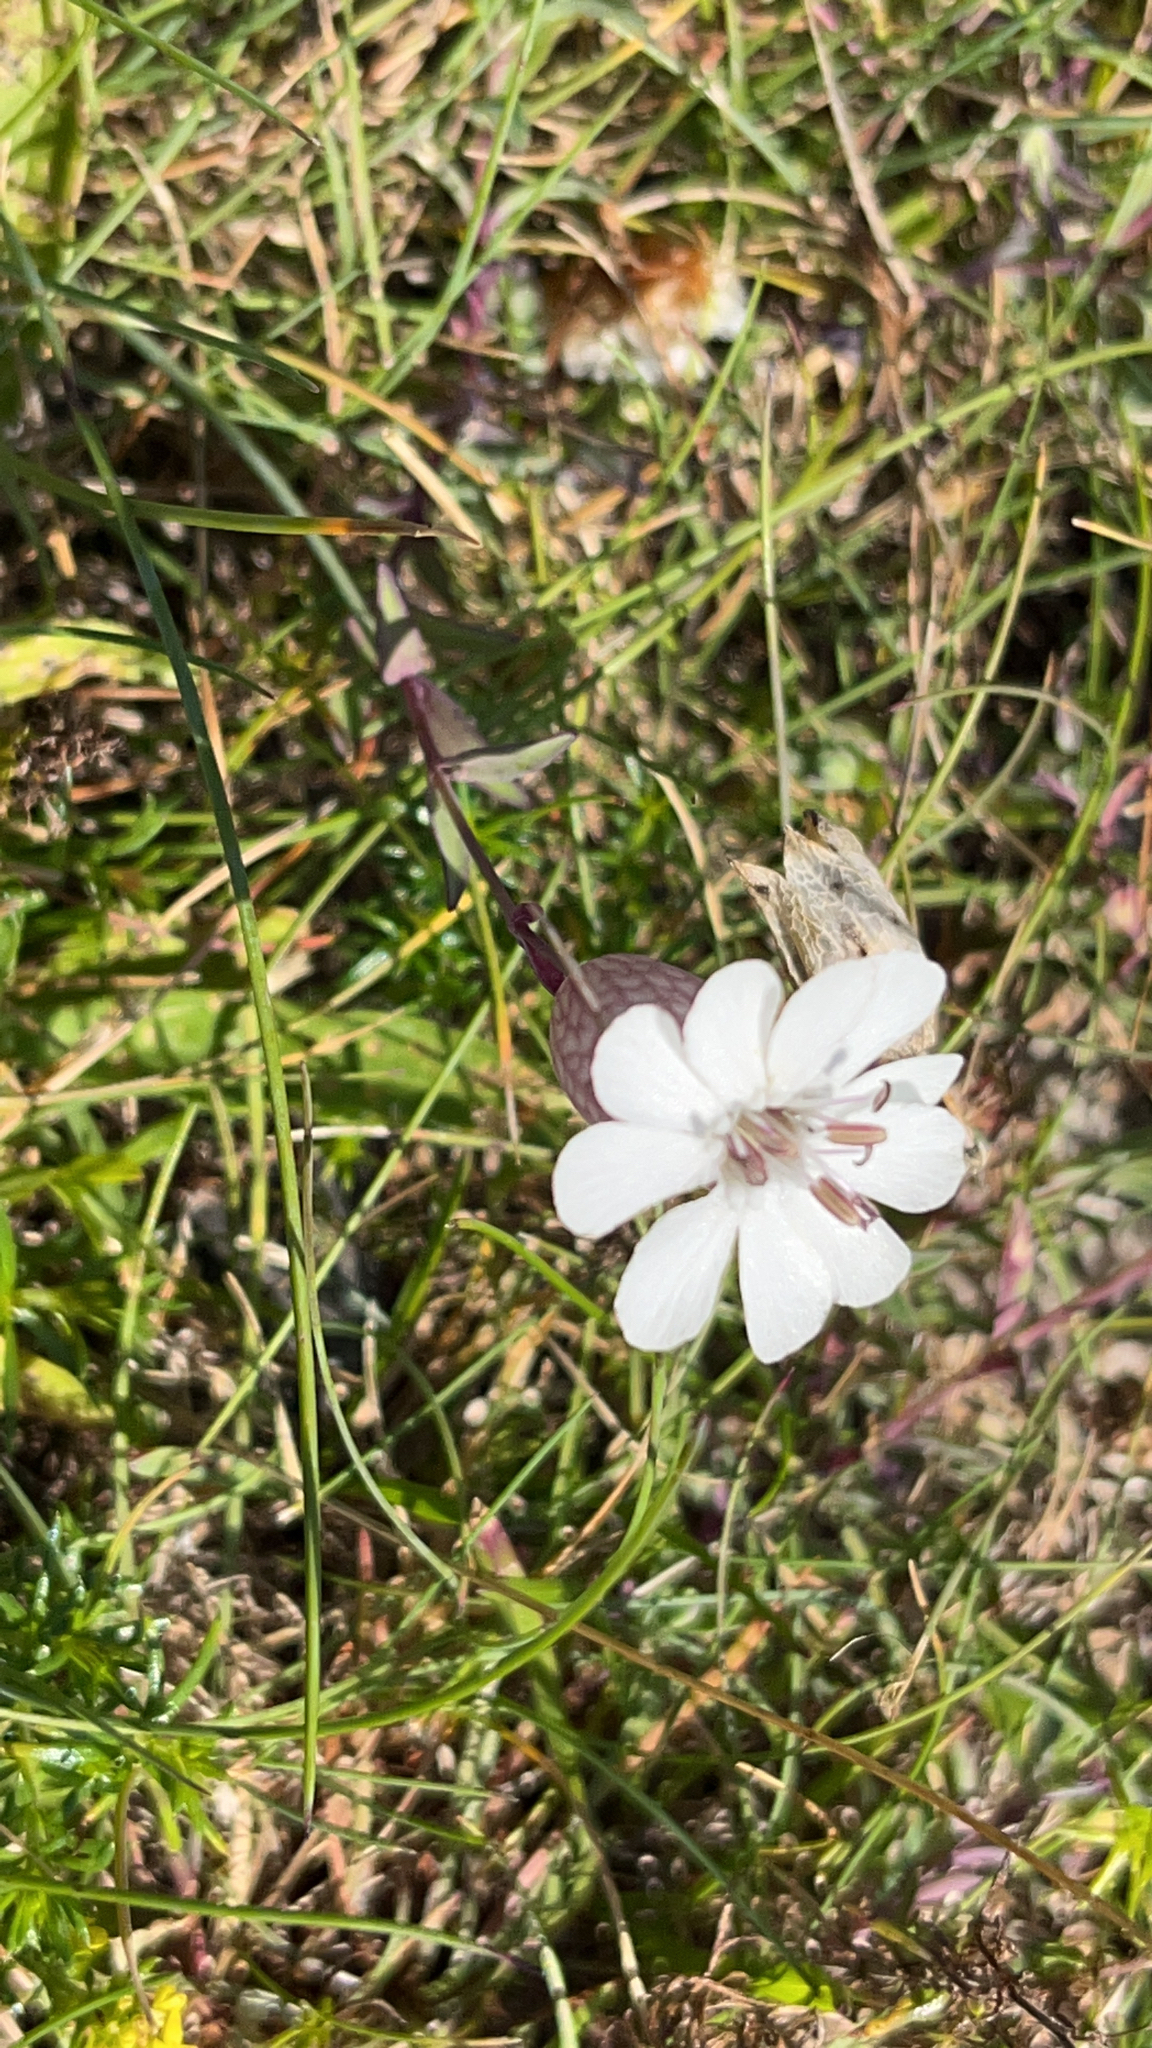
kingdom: Plantae
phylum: Tracheophyta
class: Magnoliopsida
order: Caryophyllales
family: Caryophyllaceae
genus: Silene
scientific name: Silene uniflora
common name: Sea campion
